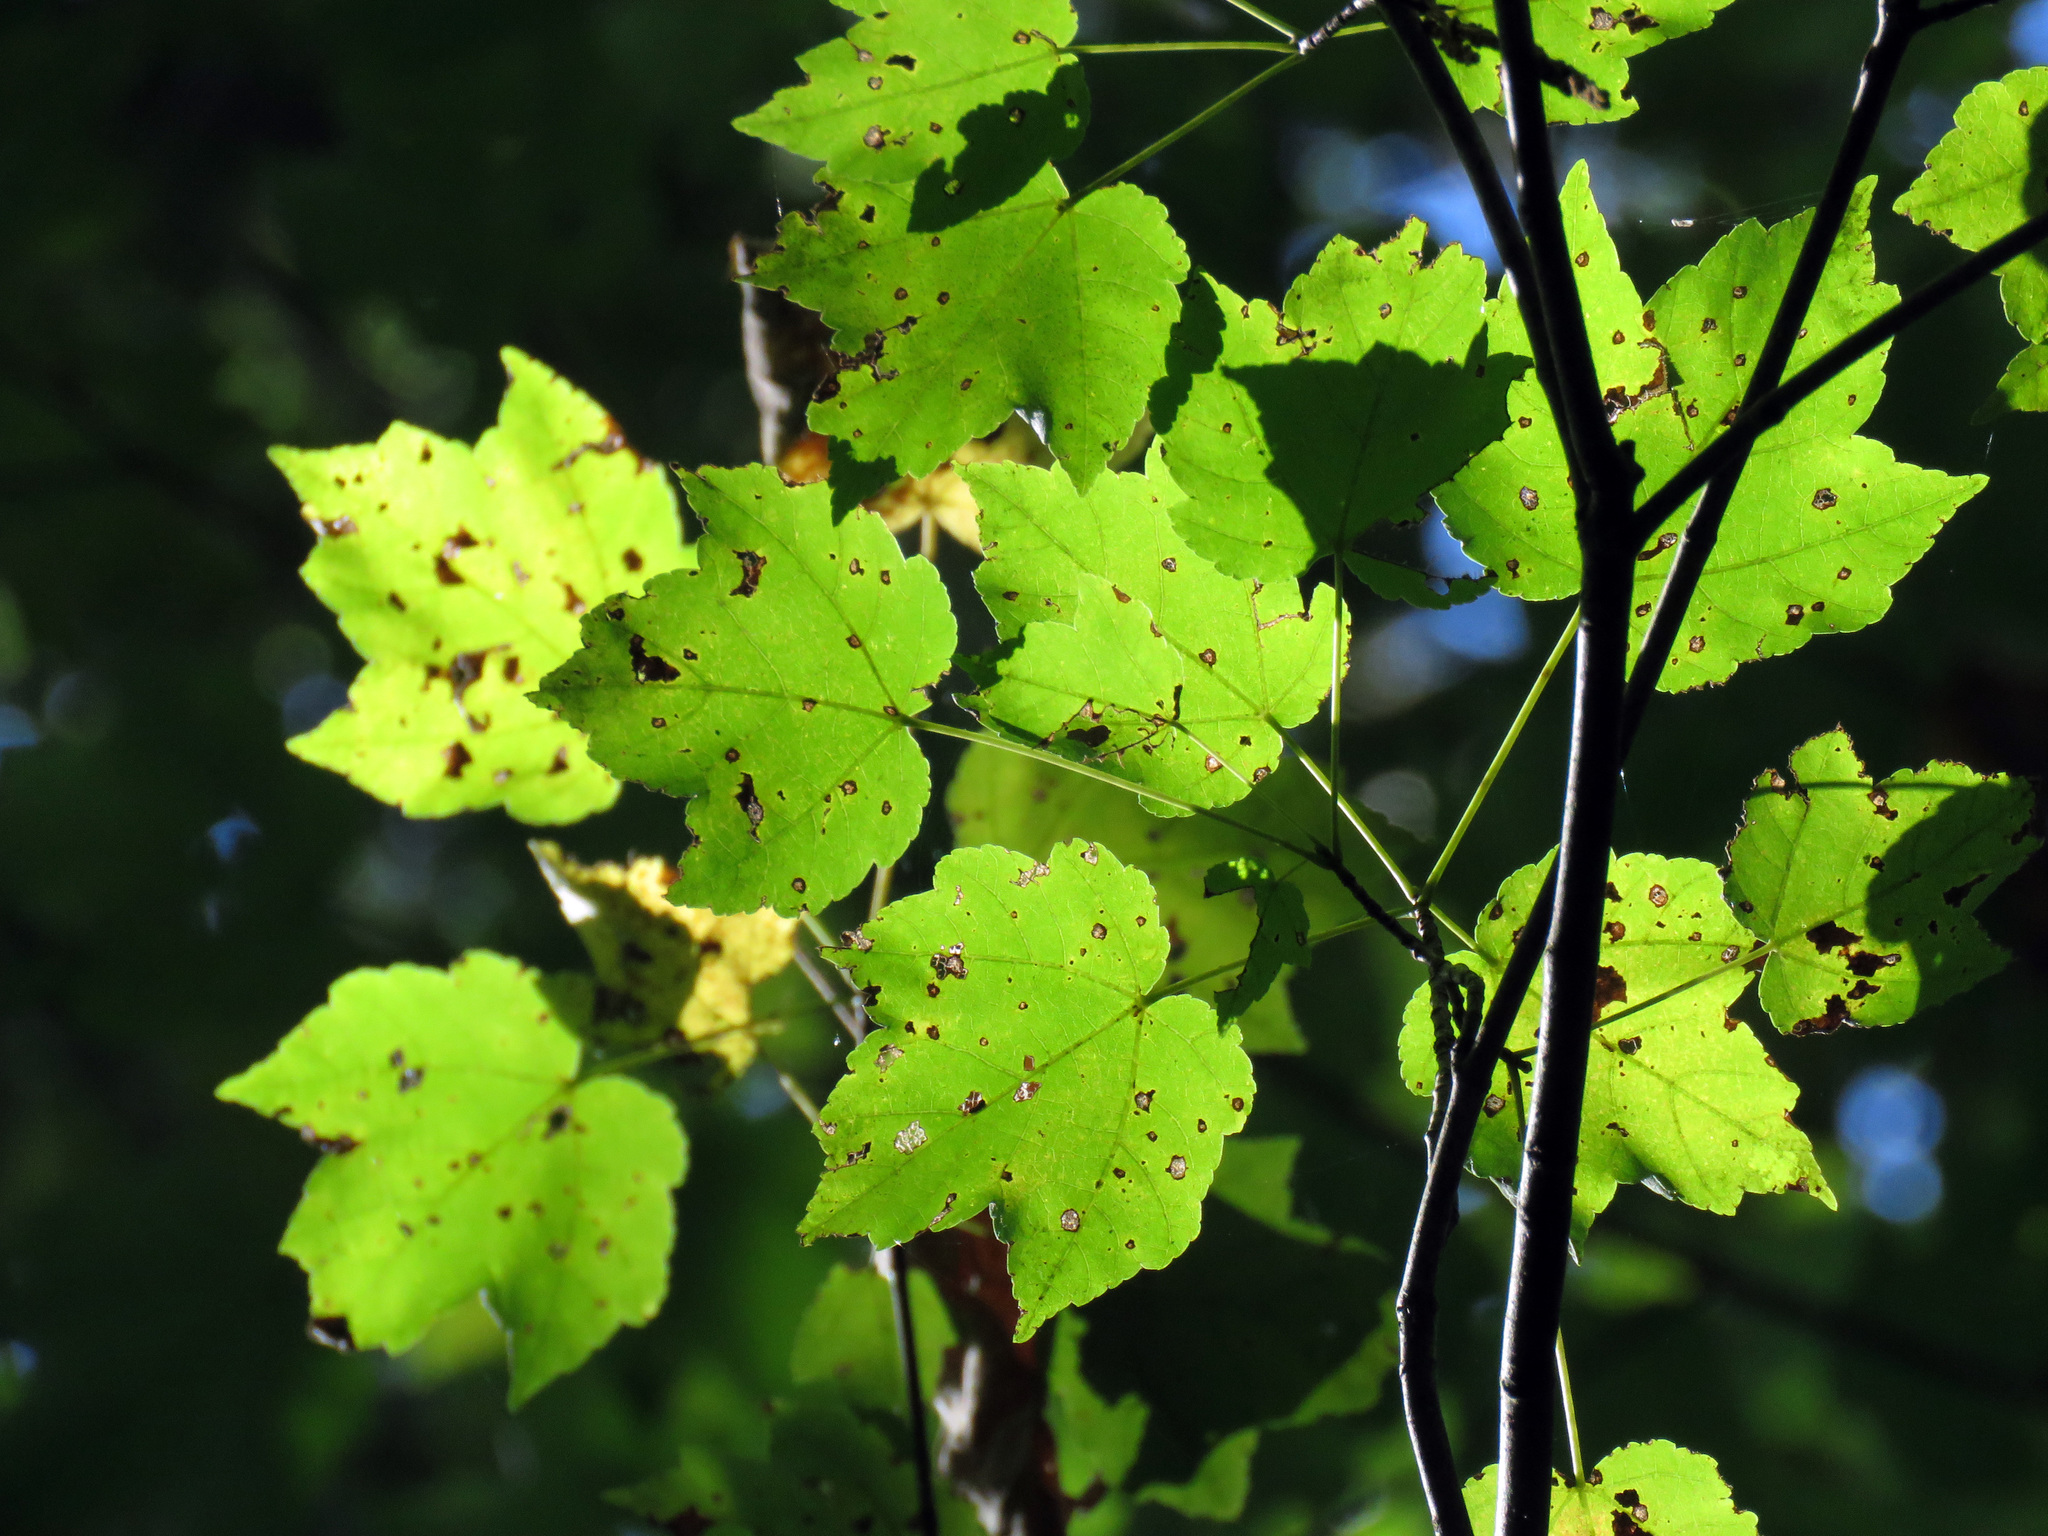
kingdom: Plantae
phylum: Tracheophyta
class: Magnoliopsida
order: Sapindales
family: Sapindaceae
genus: Acer
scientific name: Acer rubrum
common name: Red maple
